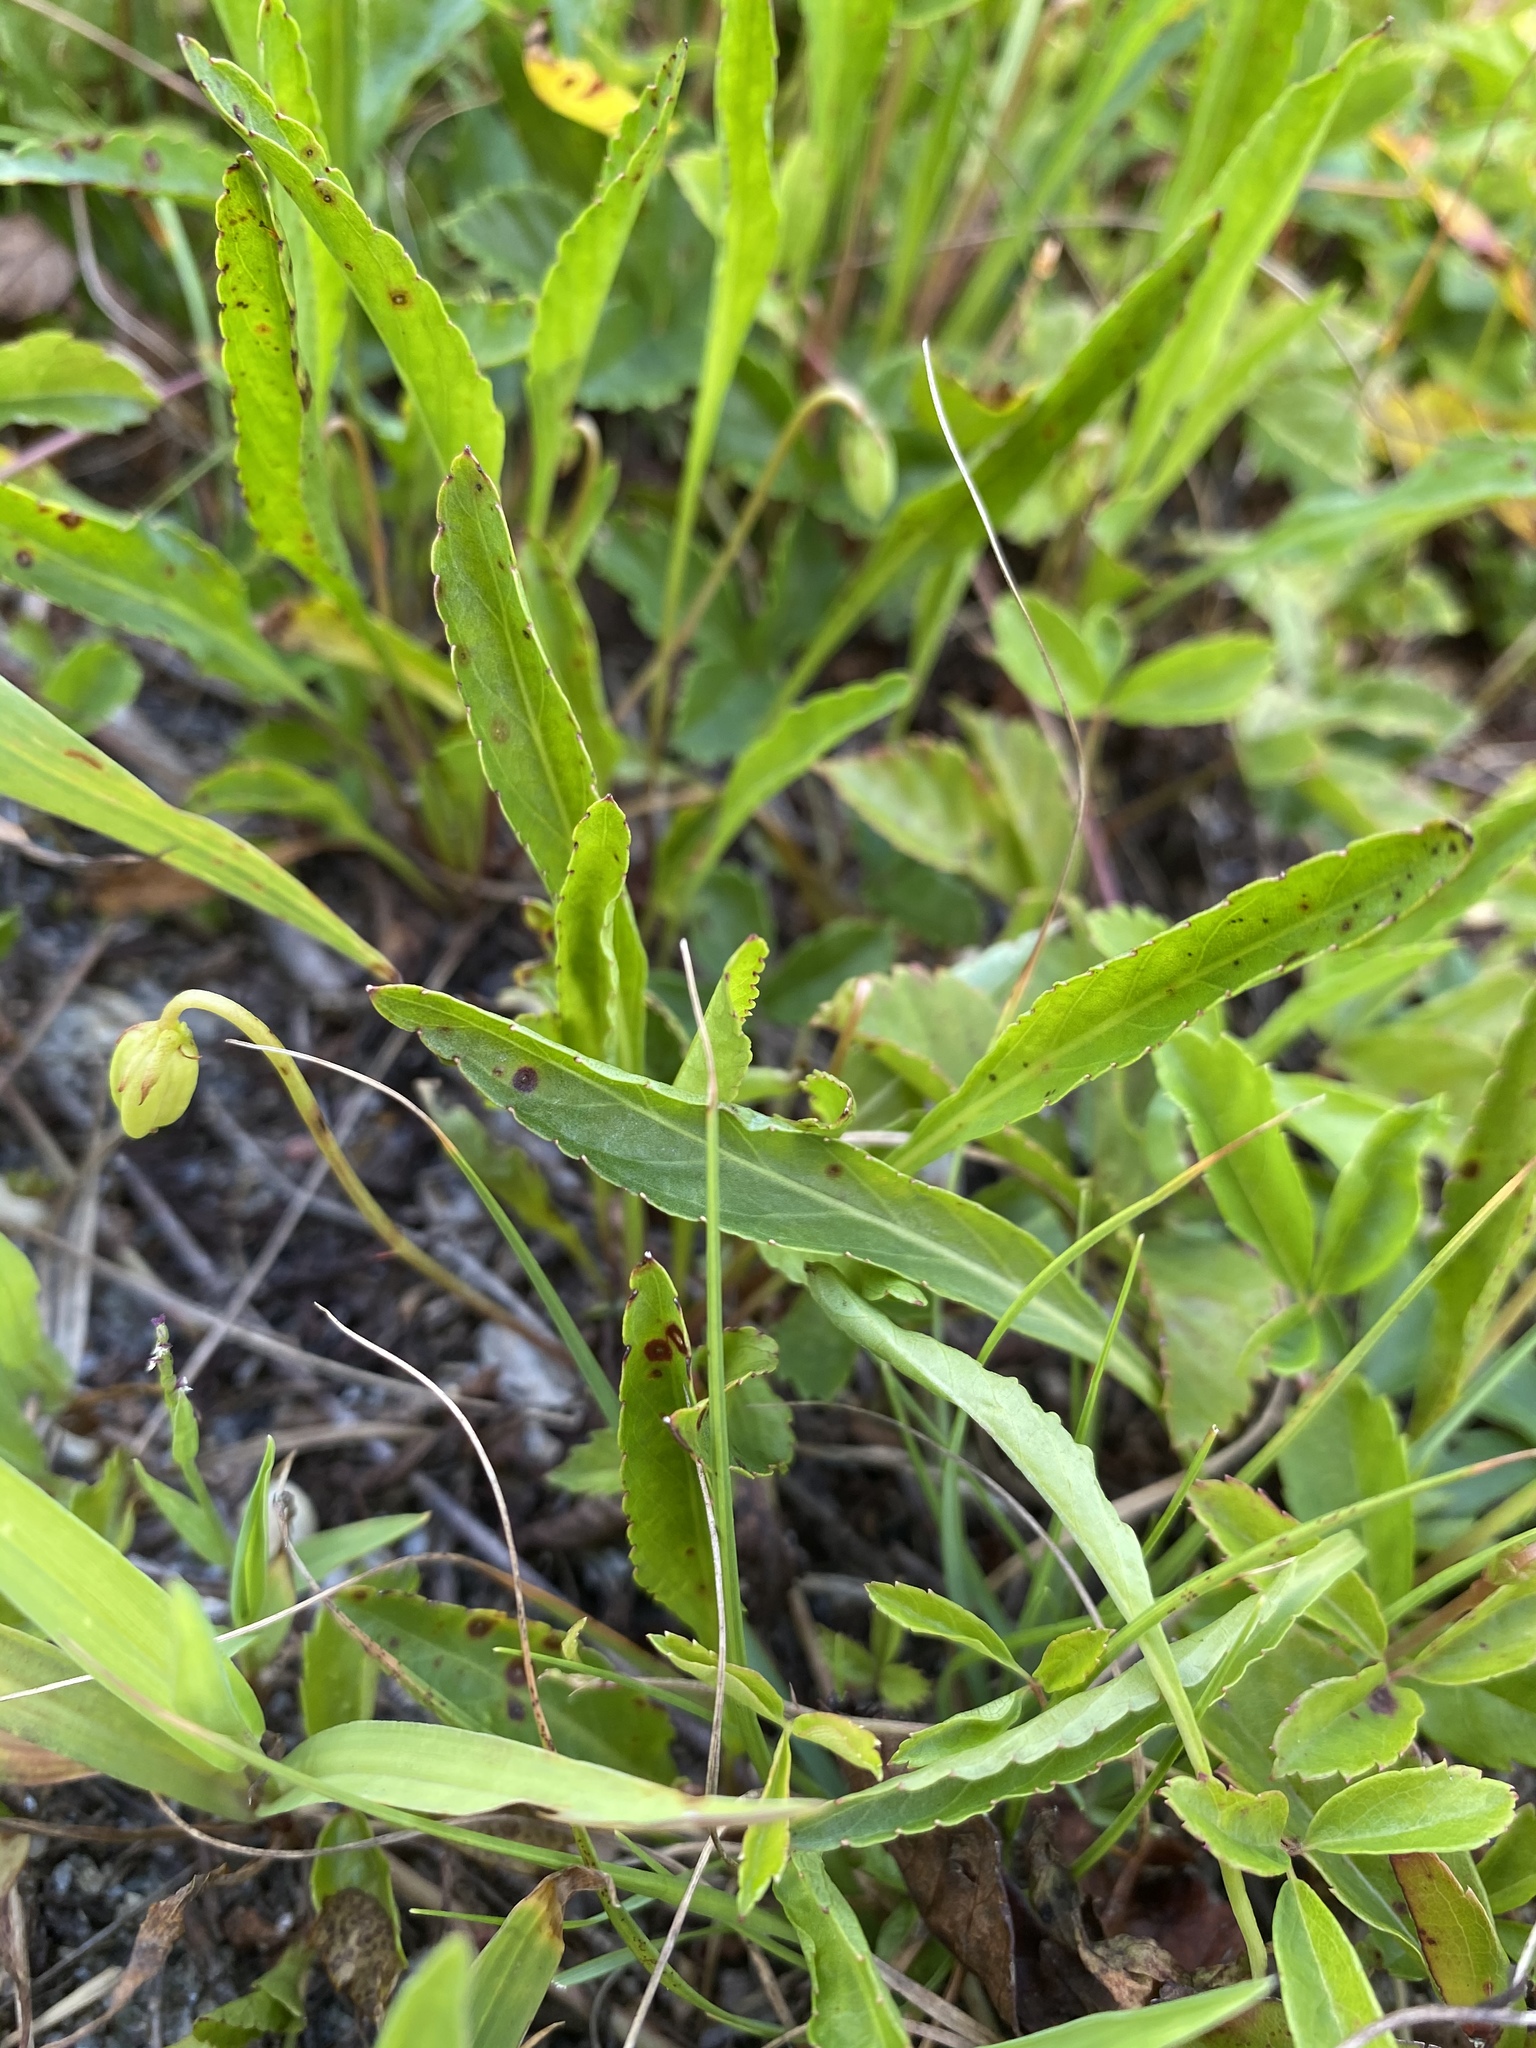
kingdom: Plantae
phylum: Tracheophyta
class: Magnoliopsida
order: Malpighiales
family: Violaceae
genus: Viola
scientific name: Viola lanceolata
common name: Bog white violet
